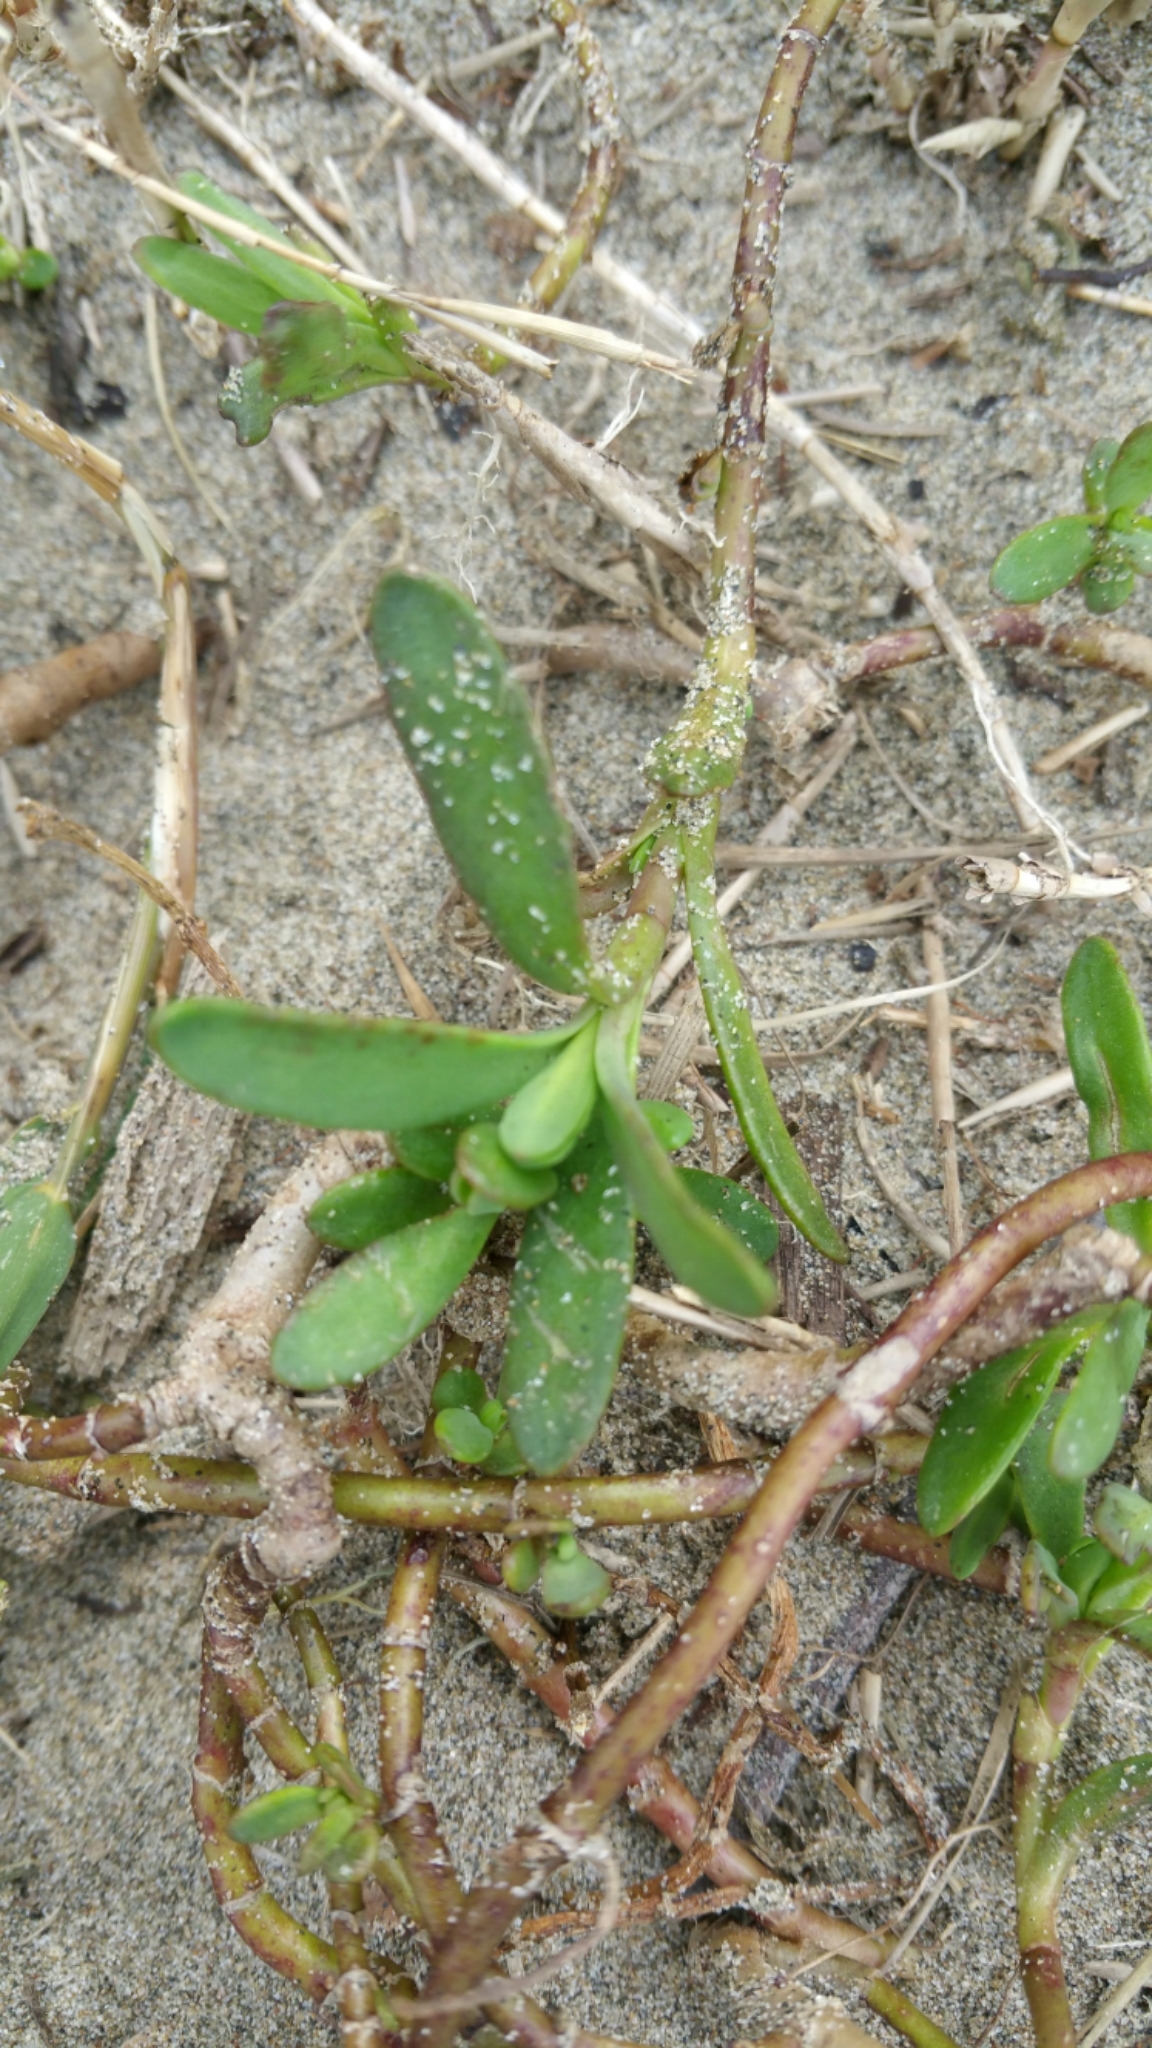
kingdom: Plantae
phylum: Tracheophyta
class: Magnoliopsida
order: Asterales
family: Asteraceae
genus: Jaumea
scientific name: Jaumea carnosa
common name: Fleshy jaumea
